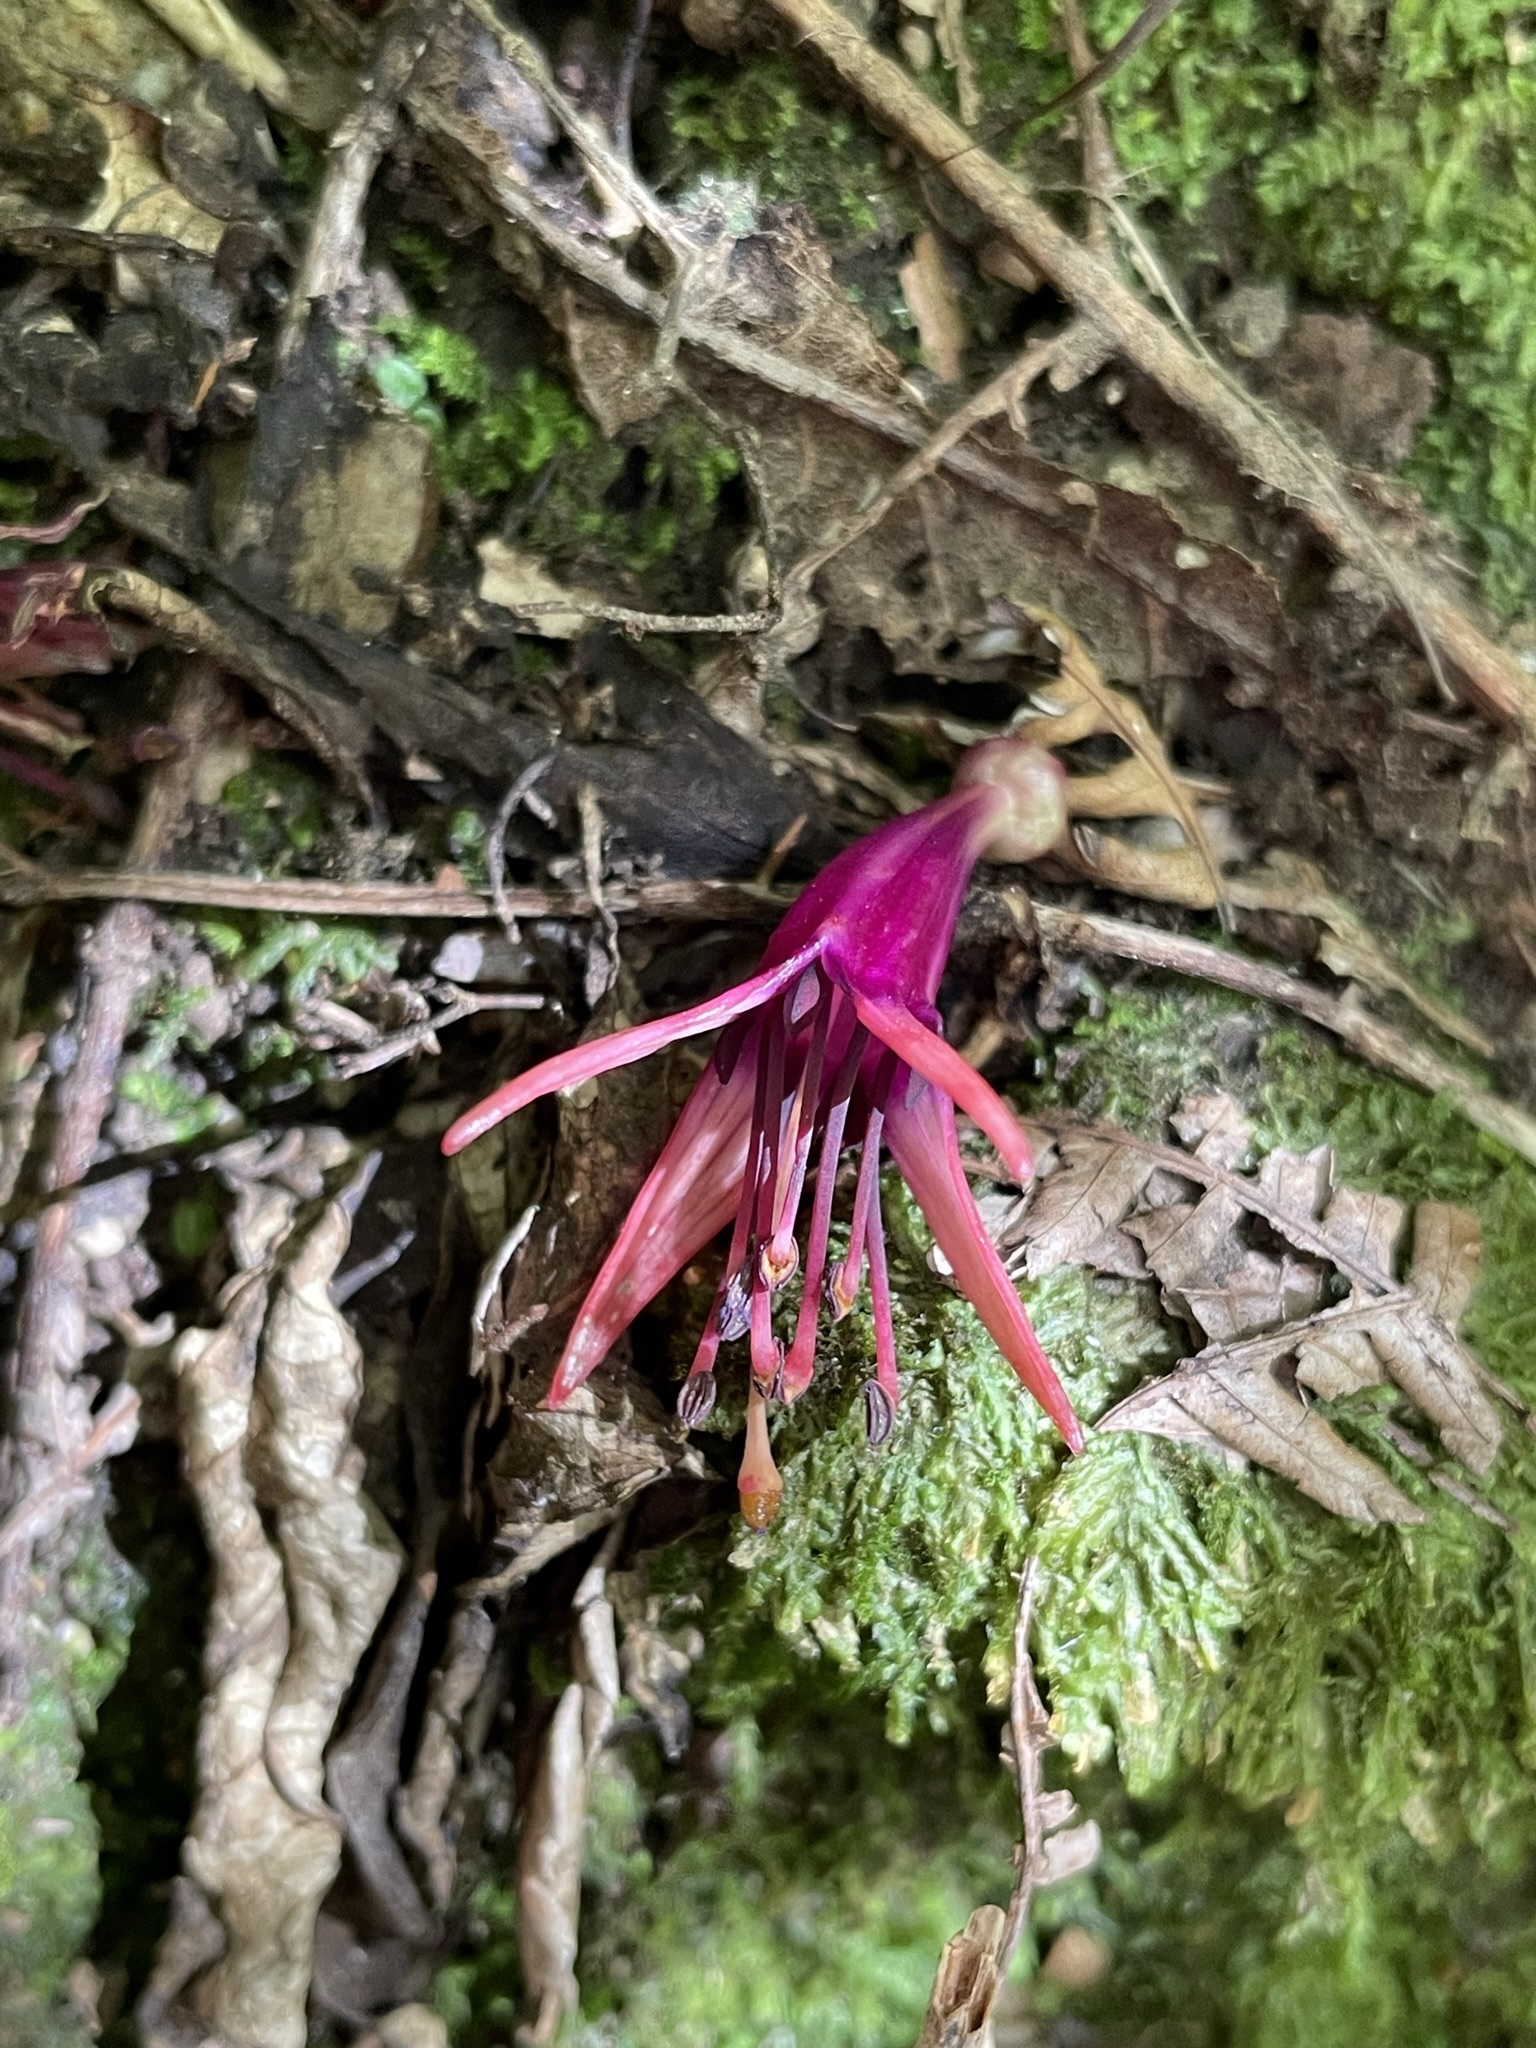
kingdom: Plantae
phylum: Tracheophyta
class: Magnoliopsida
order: Myrtales
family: Onagraceae
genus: Fuchsia
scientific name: Fuchsia excorticata
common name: Tree fuchsia
